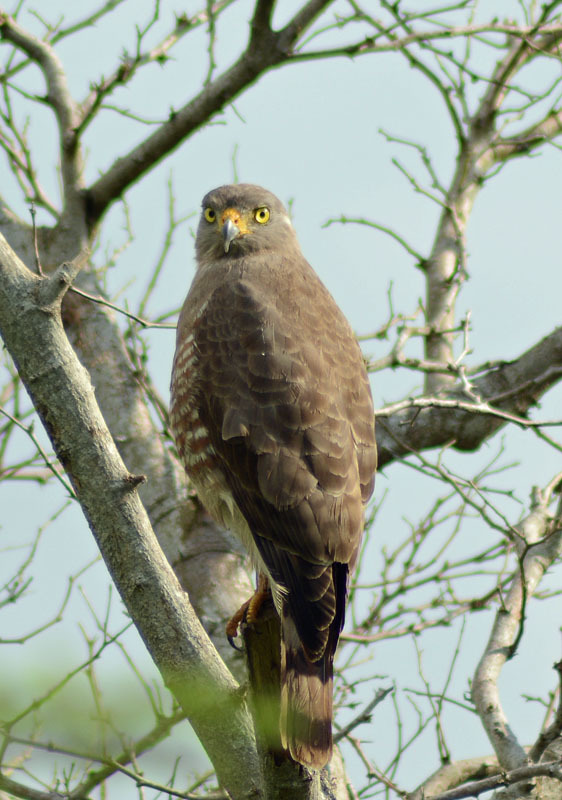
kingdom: Animalia
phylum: Chordata
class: Aves
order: Accipitriformes
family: Accipitridae
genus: Rupornis
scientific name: Rupornis magnirostris
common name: Roadside hawk
